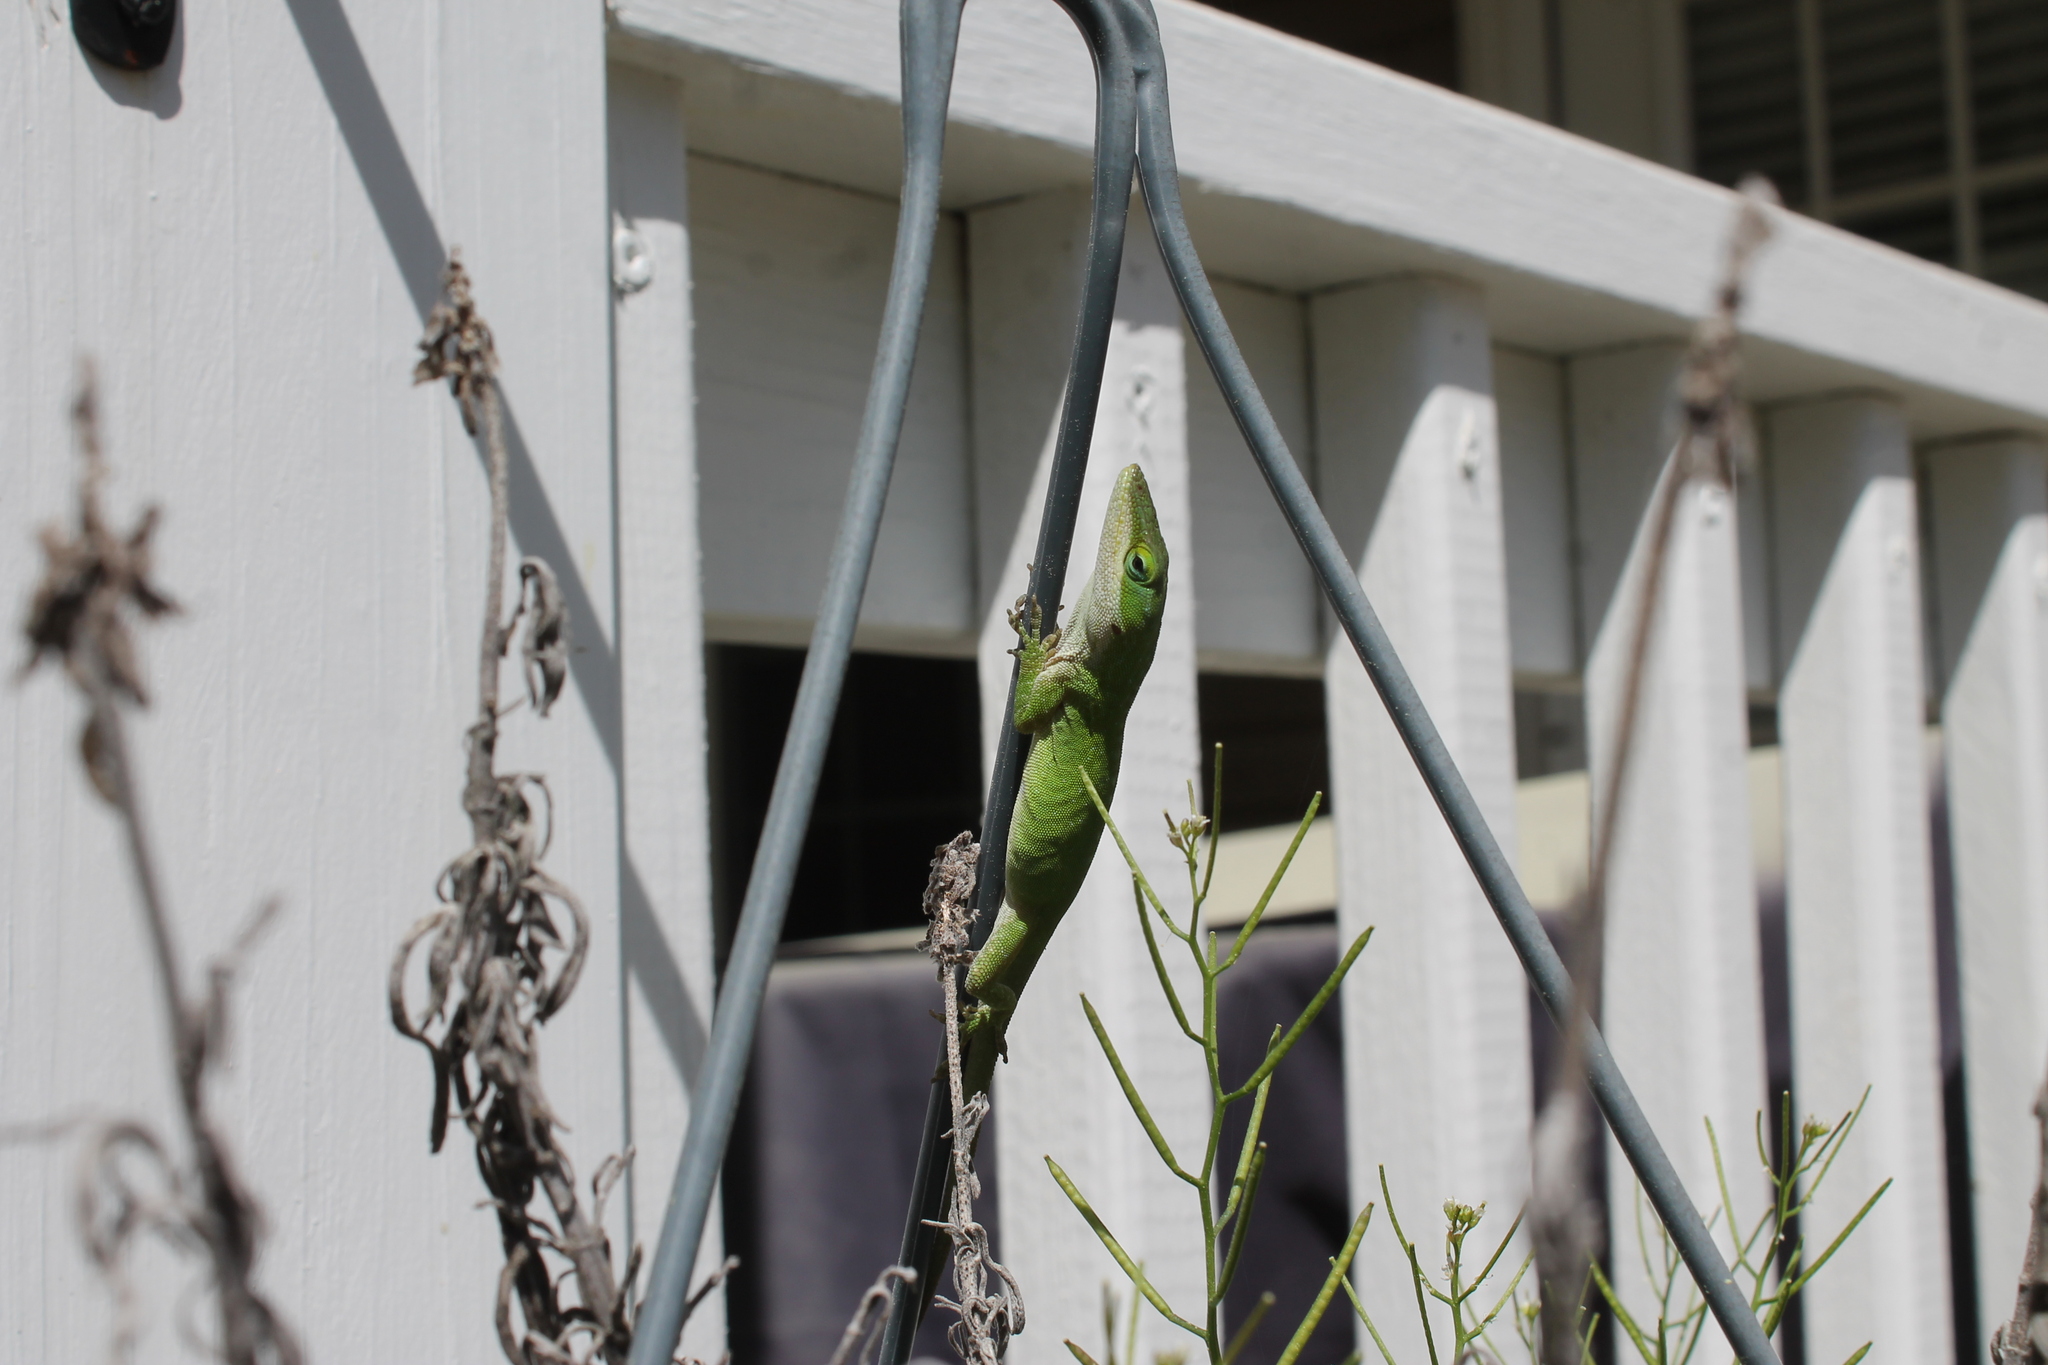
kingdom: Animalia
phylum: Chordata
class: Squamata
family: Dactyloidae
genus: Anolis
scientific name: Anolis carolinensis
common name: Green anole
